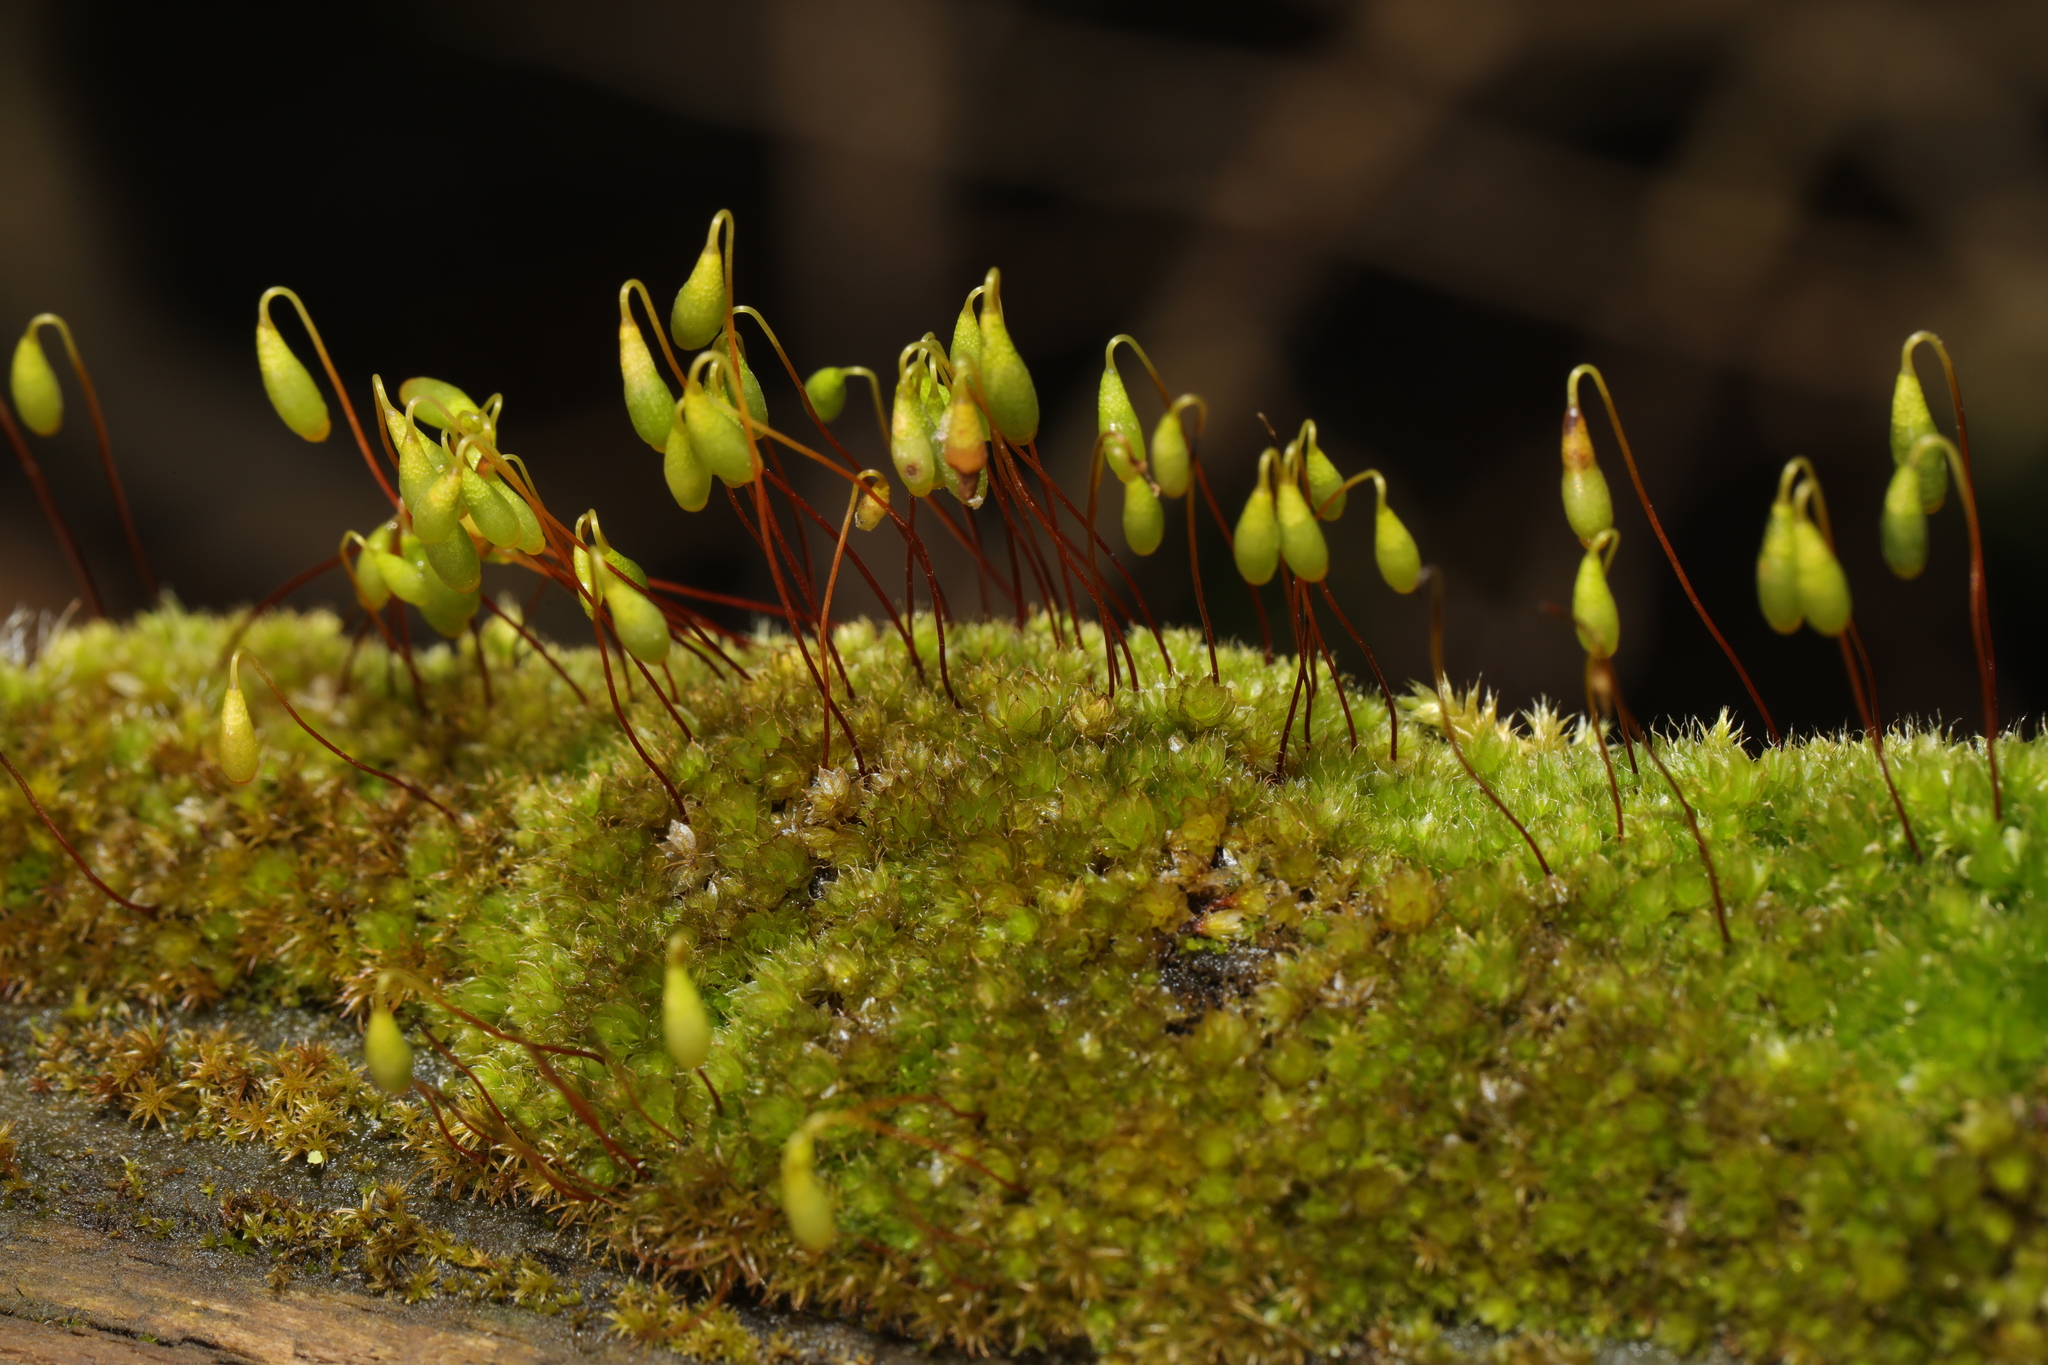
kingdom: Plantae
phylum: Bryophyta
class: Bryopsida
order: Bryales
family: Bryaceae
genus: Rosulabryum
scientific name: Rosulabryum capillare
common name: Capillary thread-moss
